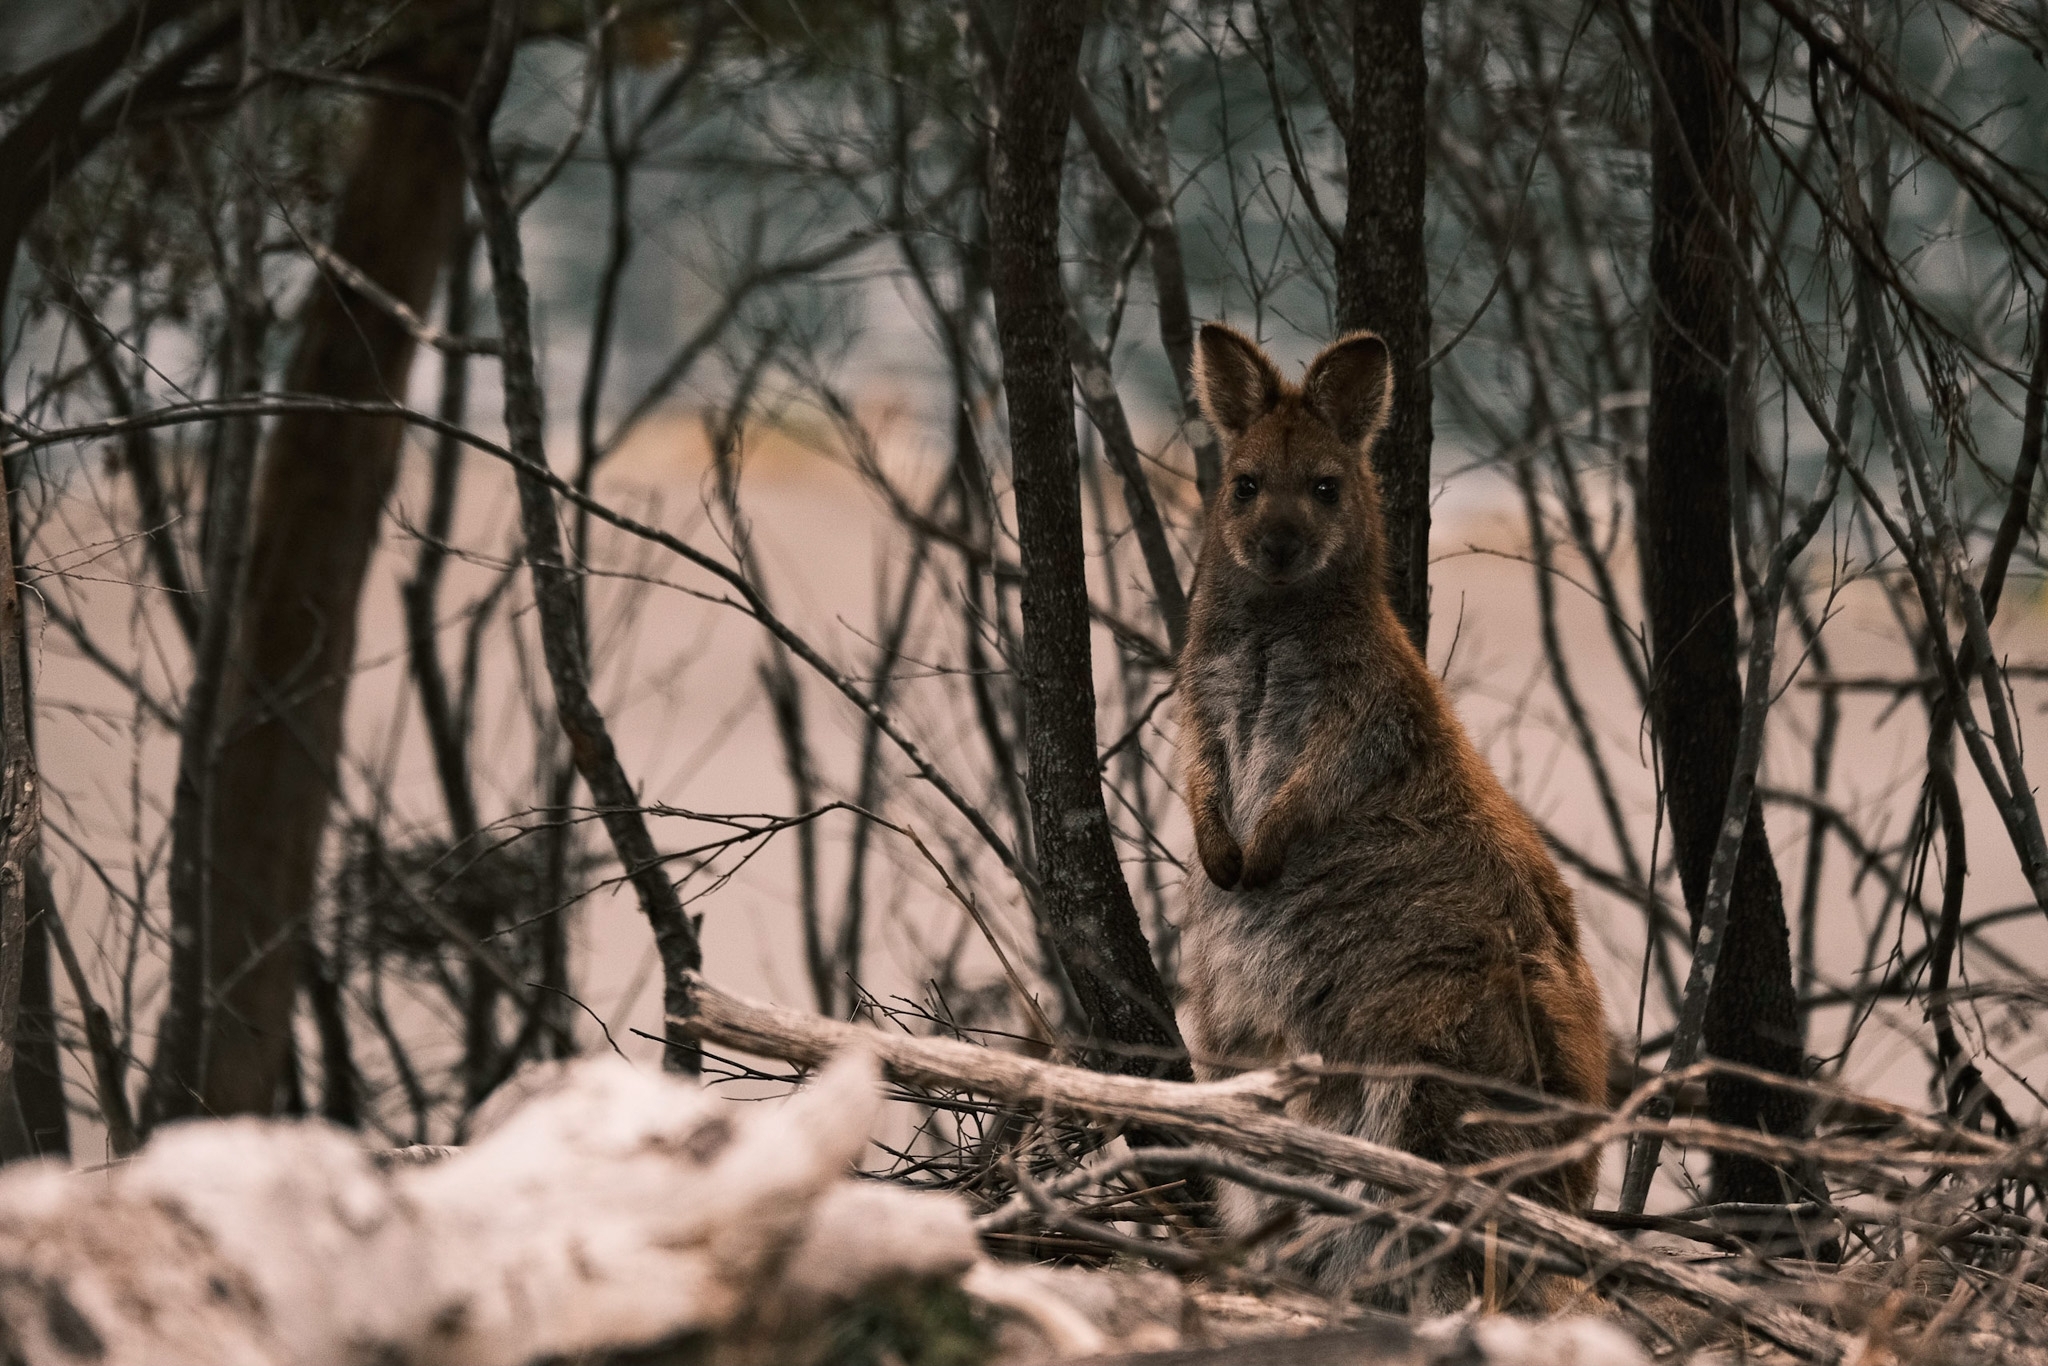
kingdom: Animalia
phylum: Chordata
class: Mammalia
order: Diprotodontia
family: Macropodidae
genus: Notamacropus
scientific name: Notamacropus rufogriseus
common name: Red-necked wallaby
